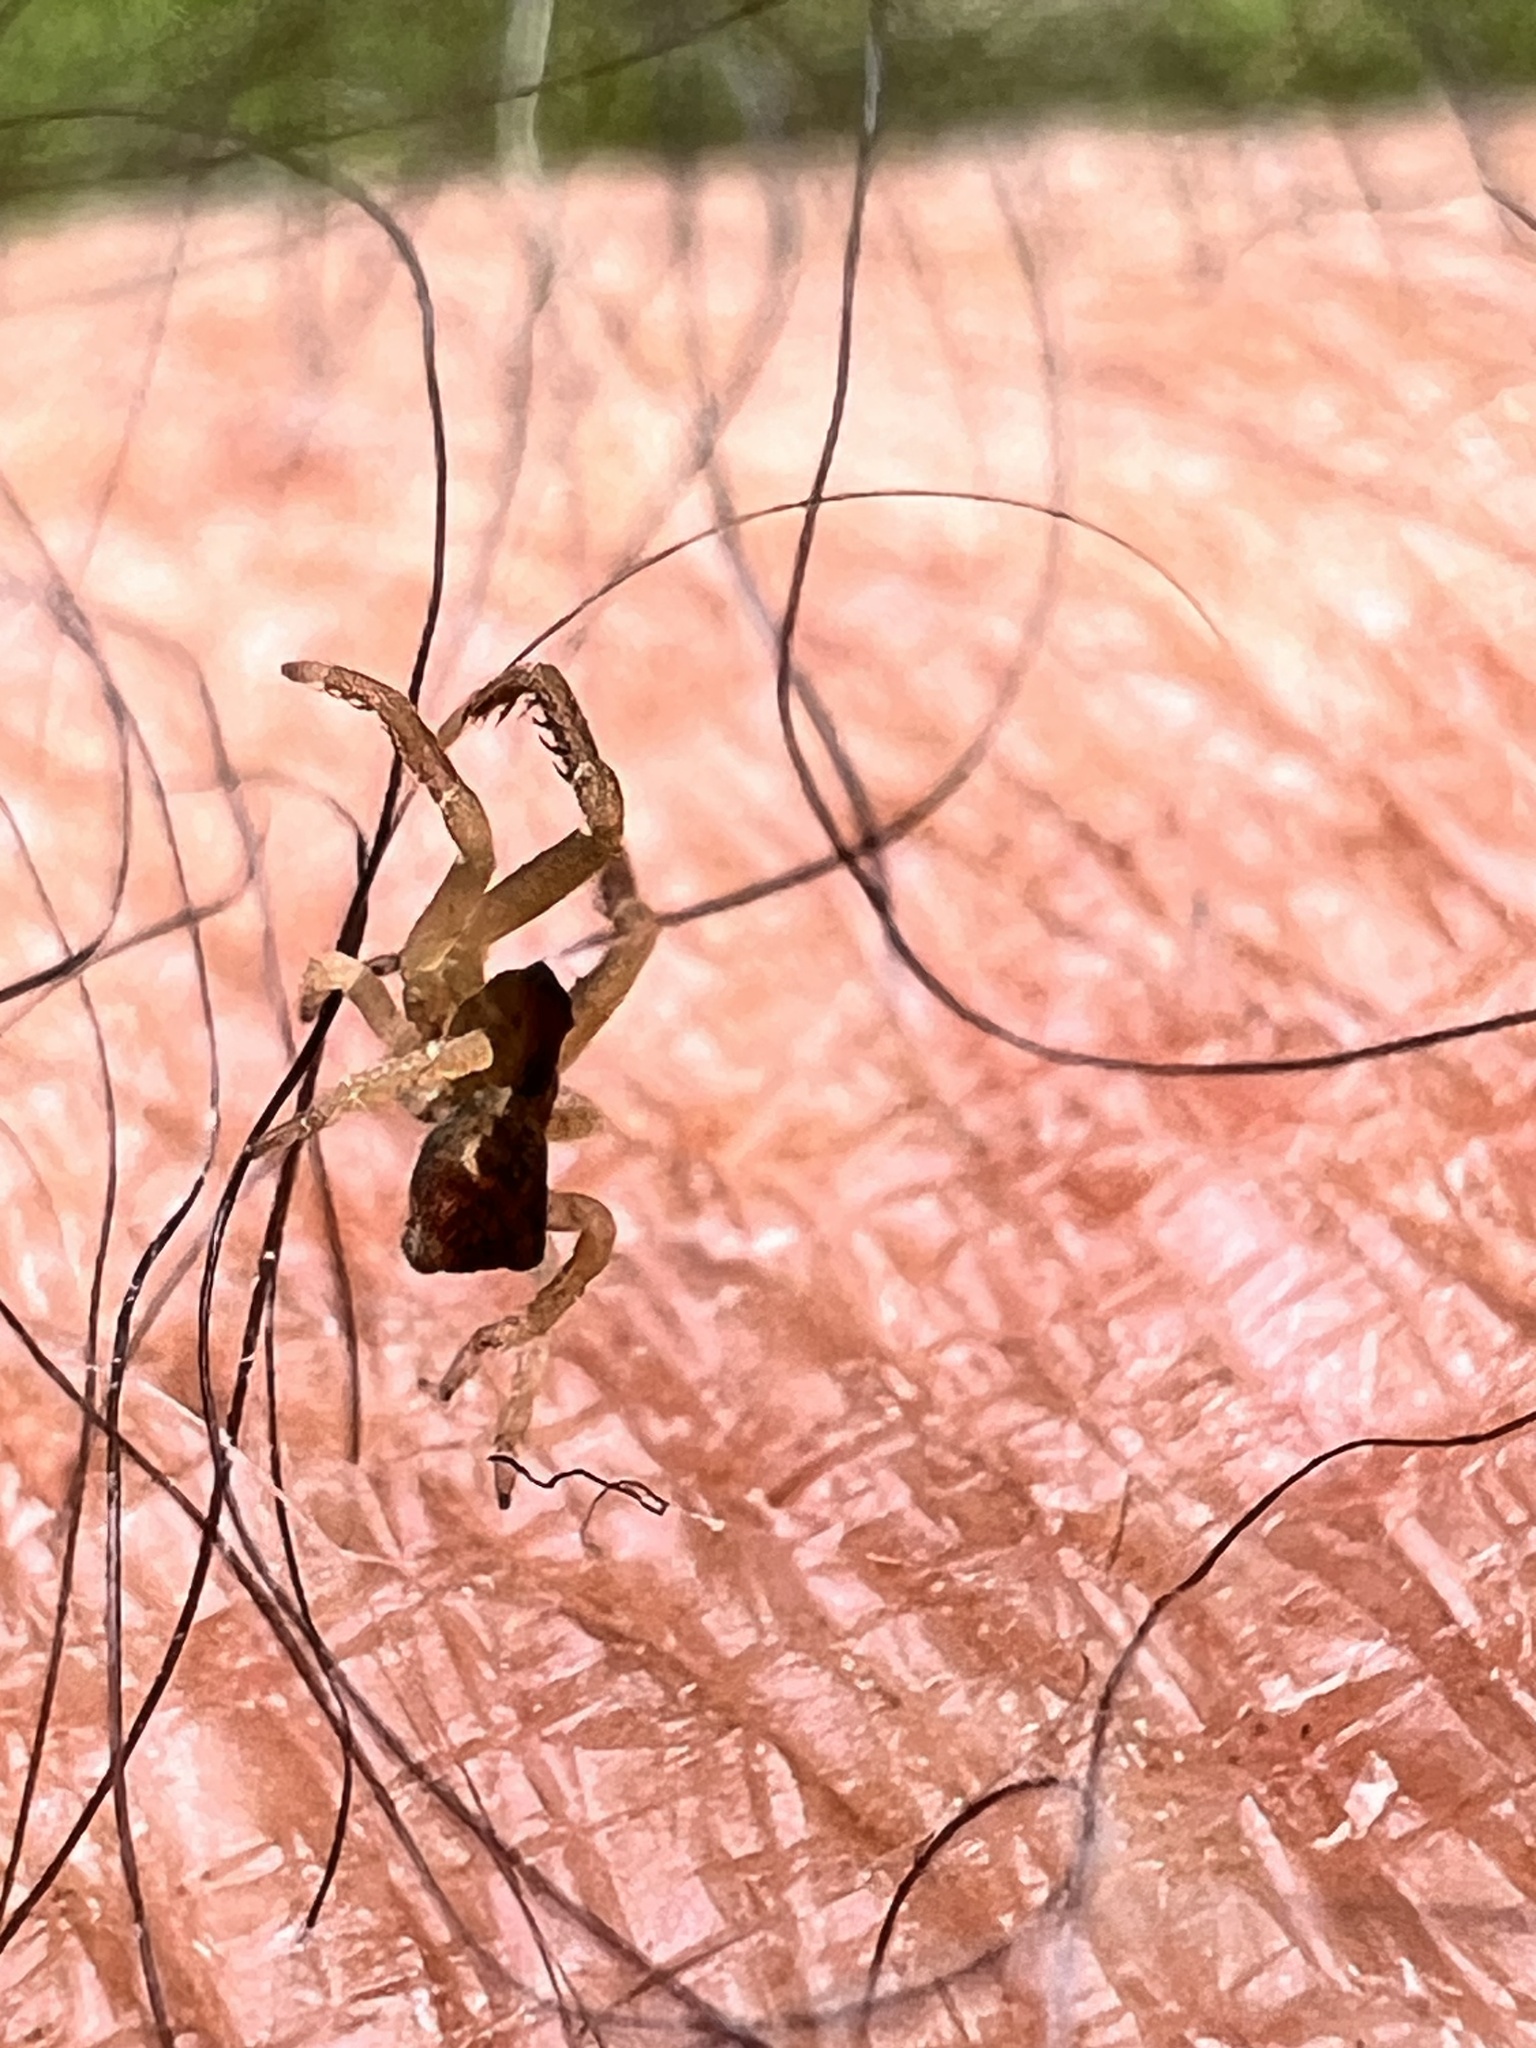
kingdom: Animalia
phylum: Arthropoda
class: Arachnida
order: Araneae
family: Thomisidae
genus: Sidymella
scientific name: Sidymella angularis
